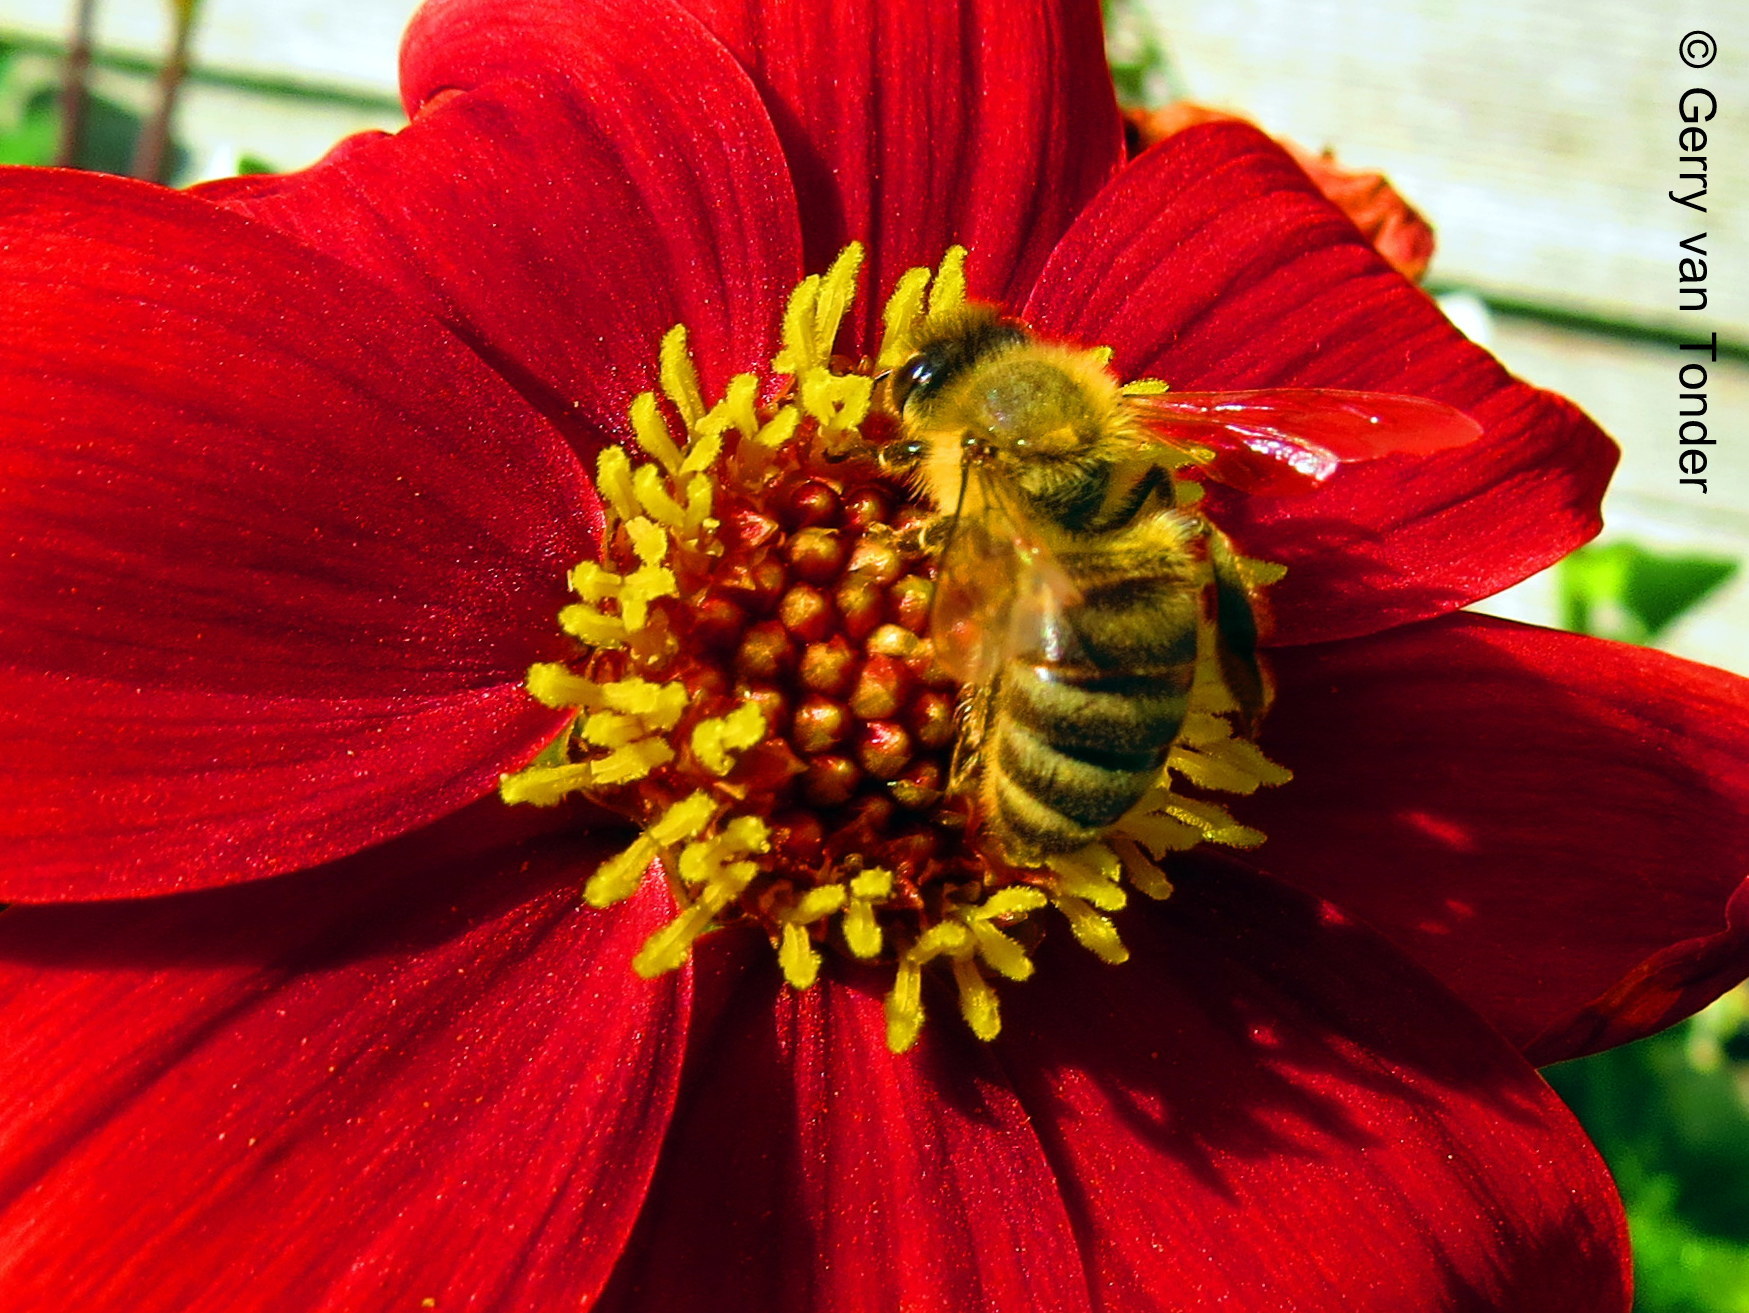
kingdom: Animalia
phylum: Arthropoda
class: Insecta
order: Hymenoptera
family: Apidae
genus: Apis
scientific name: Apis mellifera
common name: Honey bee
